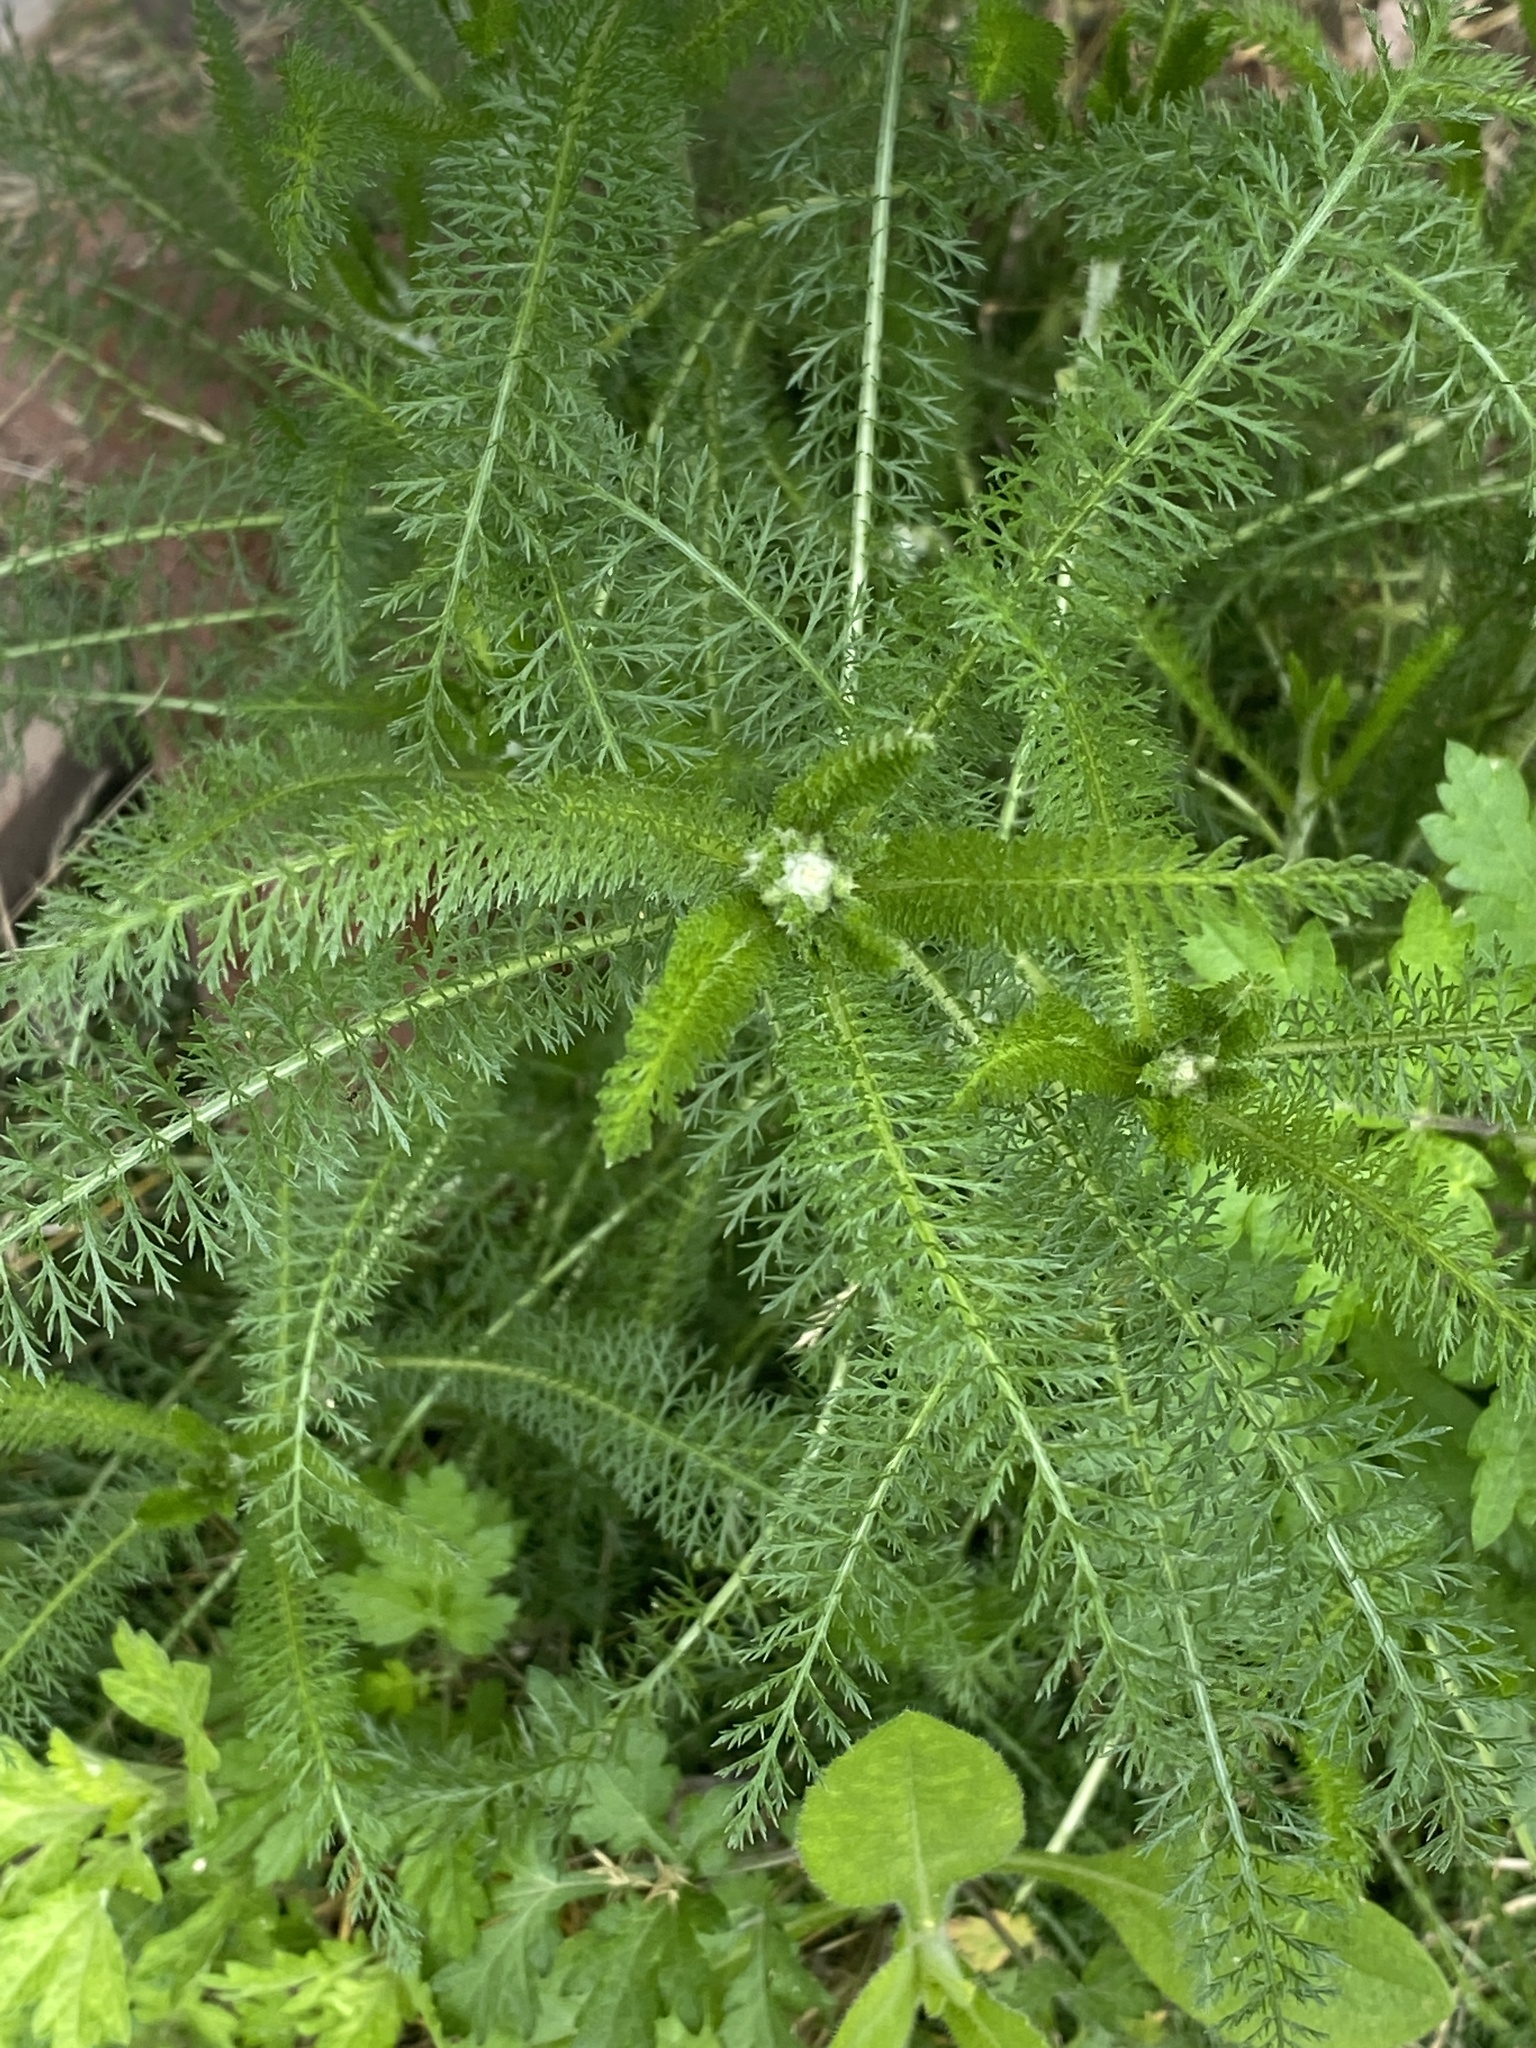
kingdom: Plantae
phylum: Tracheophyta
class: Magnoliopsida
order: Asterales
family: Asteraceae
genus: Achillea
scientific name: Achillea millefolium
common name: Yarrow
